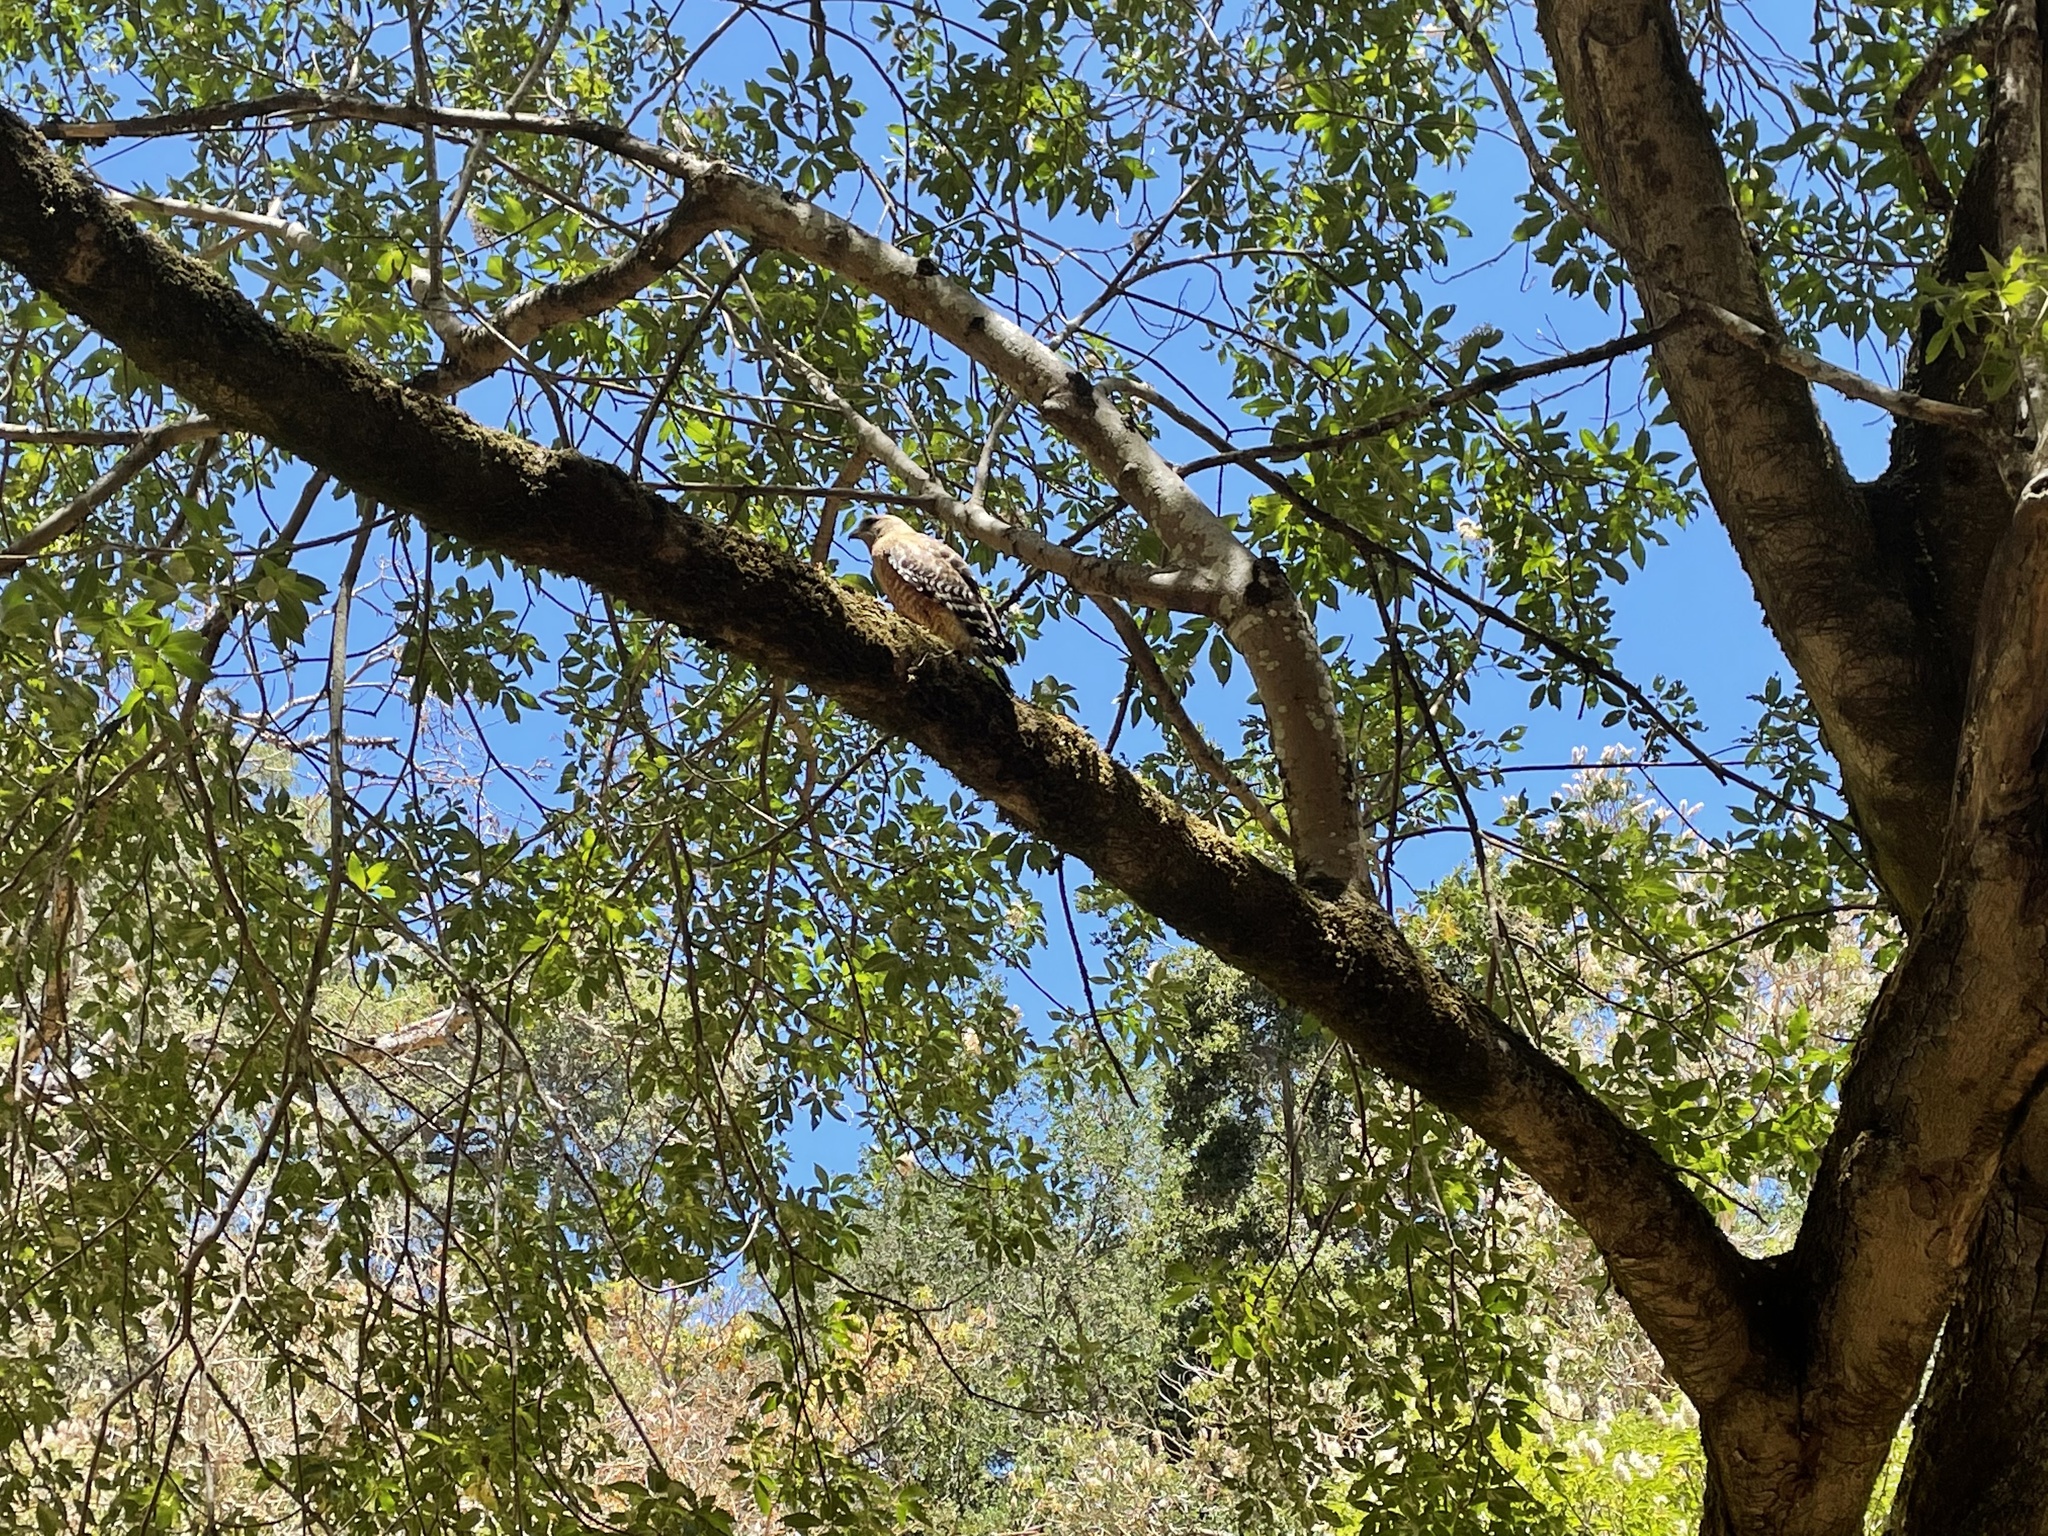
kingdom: Animalia
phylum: Chordata
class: Aves
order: Accipitriformes
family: Accipitridae
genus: Buteo
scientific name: Buteo lineatus
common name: Red-shouldered hawk
